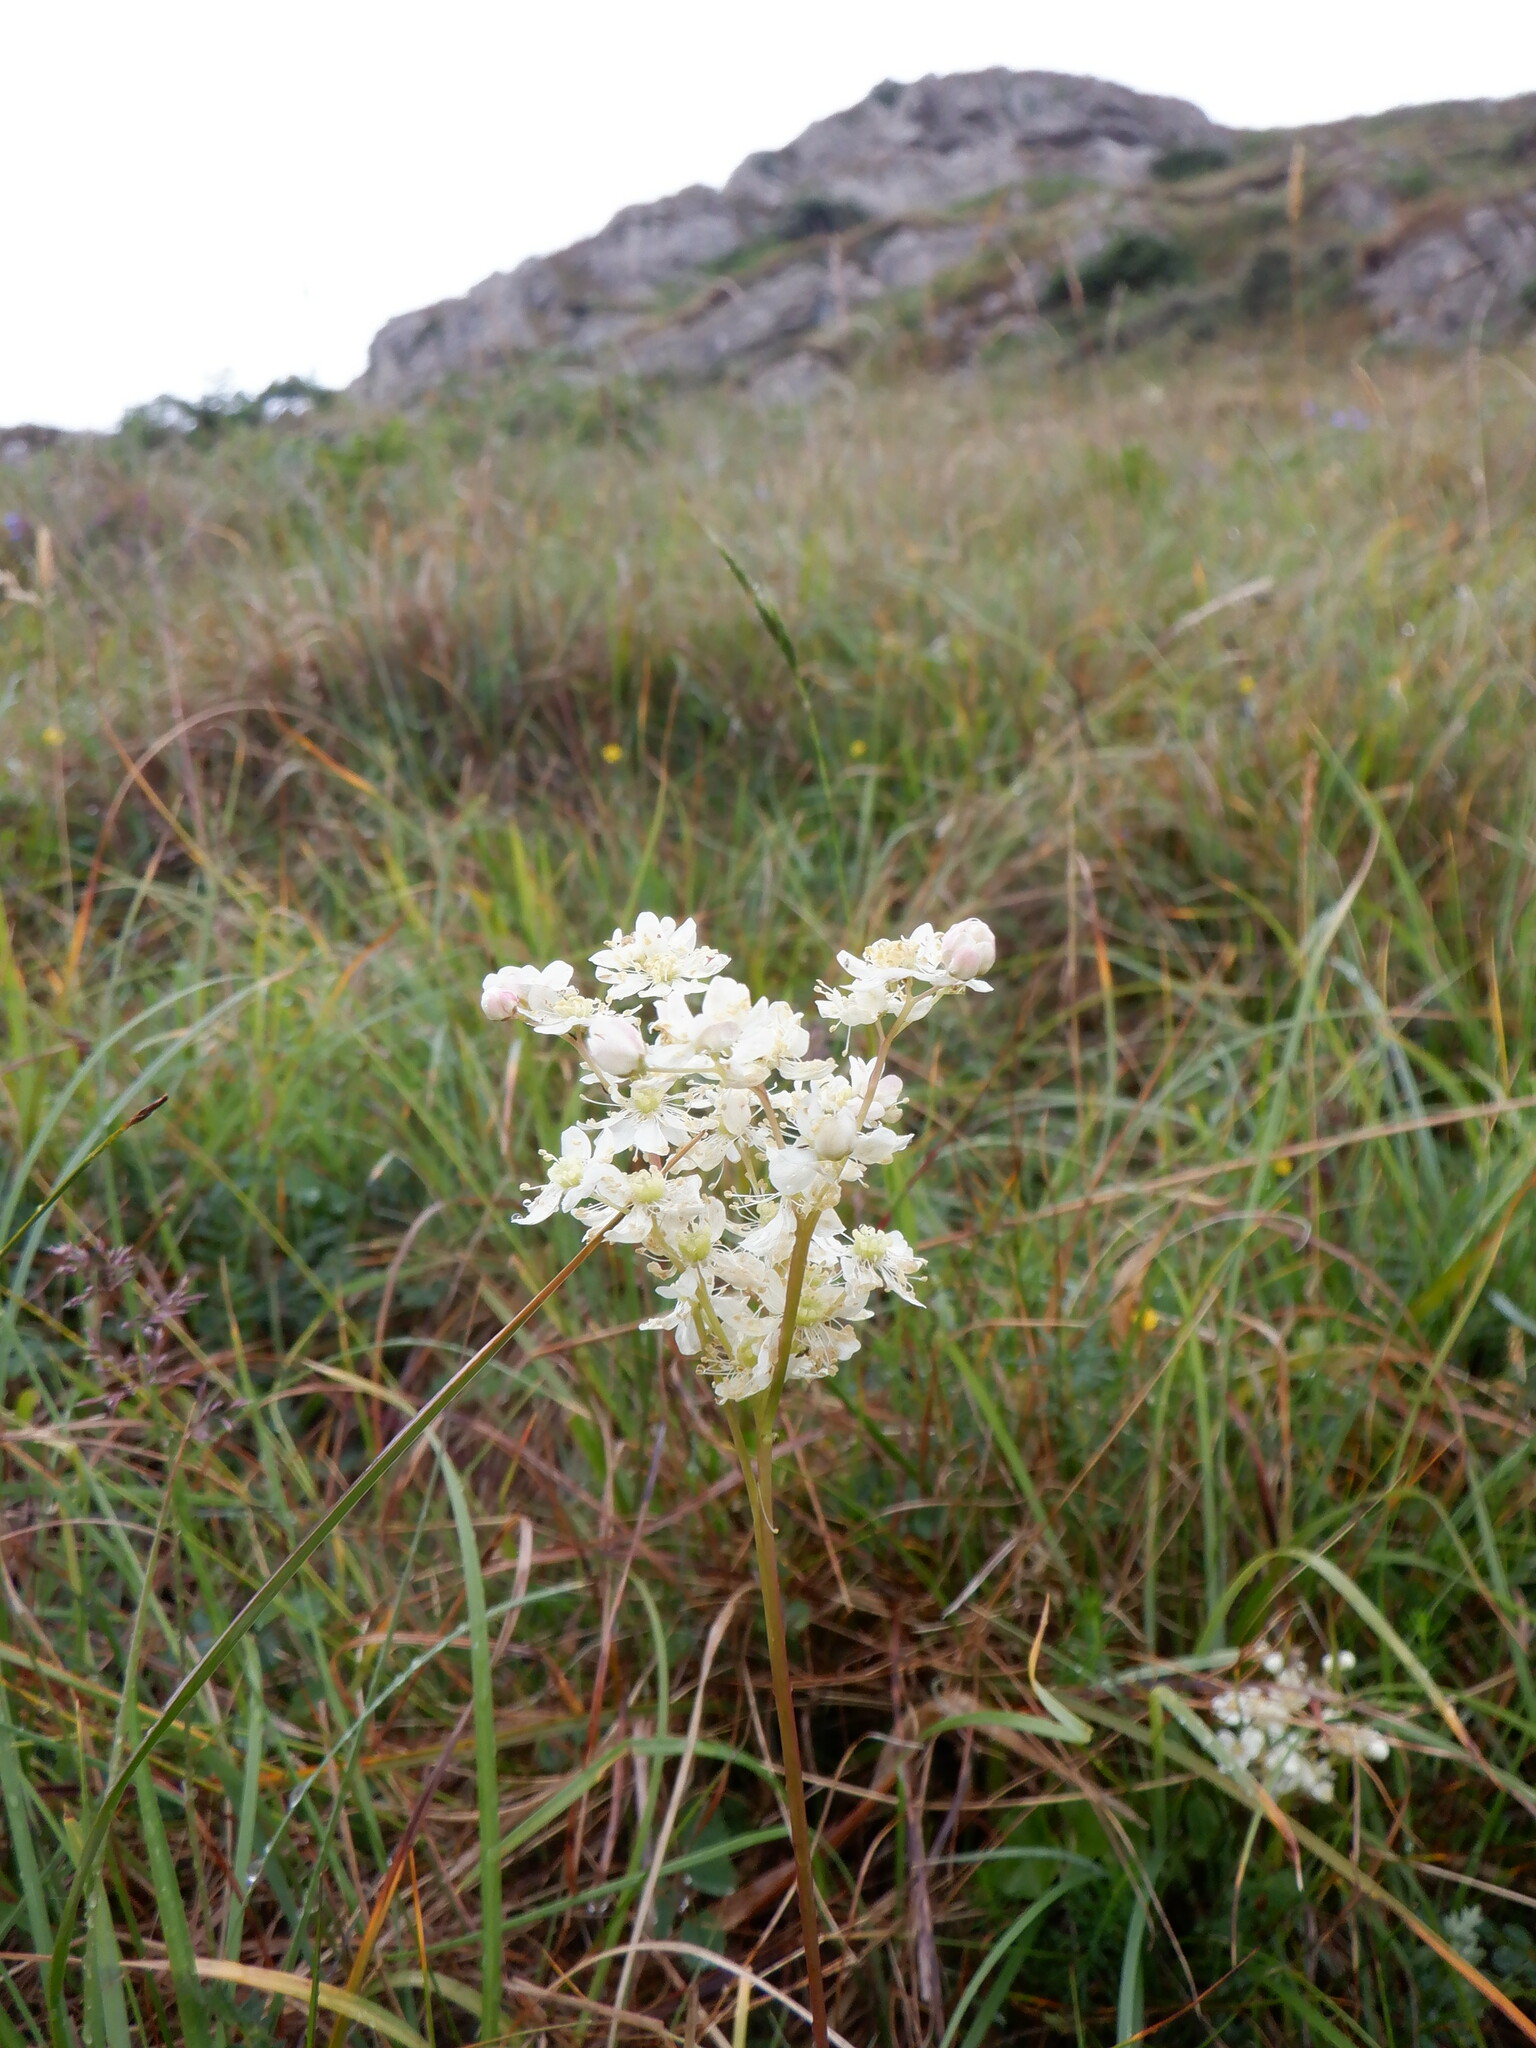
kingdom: Plantae
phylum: Tracheophyta
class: Magnoliopsida
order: Rosales
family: Rosaceae
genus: Filipendula
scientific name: Filipendula vulgaris
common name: Dropwort
